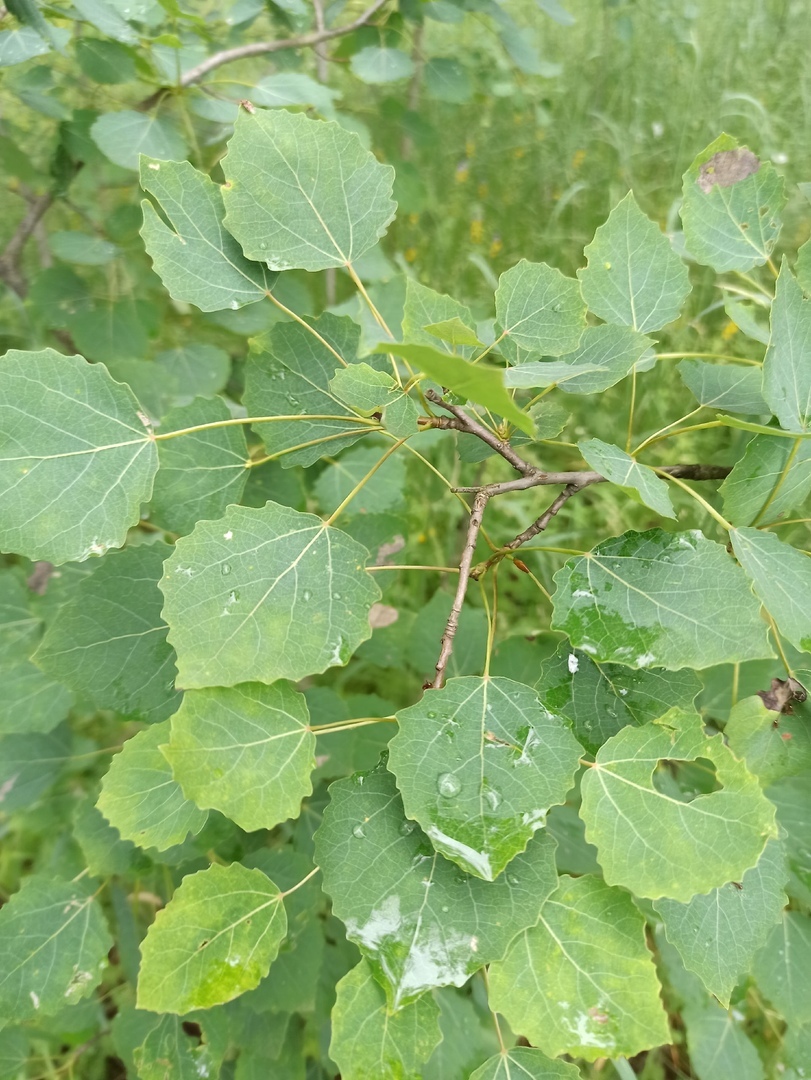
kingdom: Plantae
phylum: Tracheophyta
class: Magnoliopsida
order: Malpighiales
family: Salicaceae
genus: Populus
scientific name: Populus tremula
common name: European aspen
